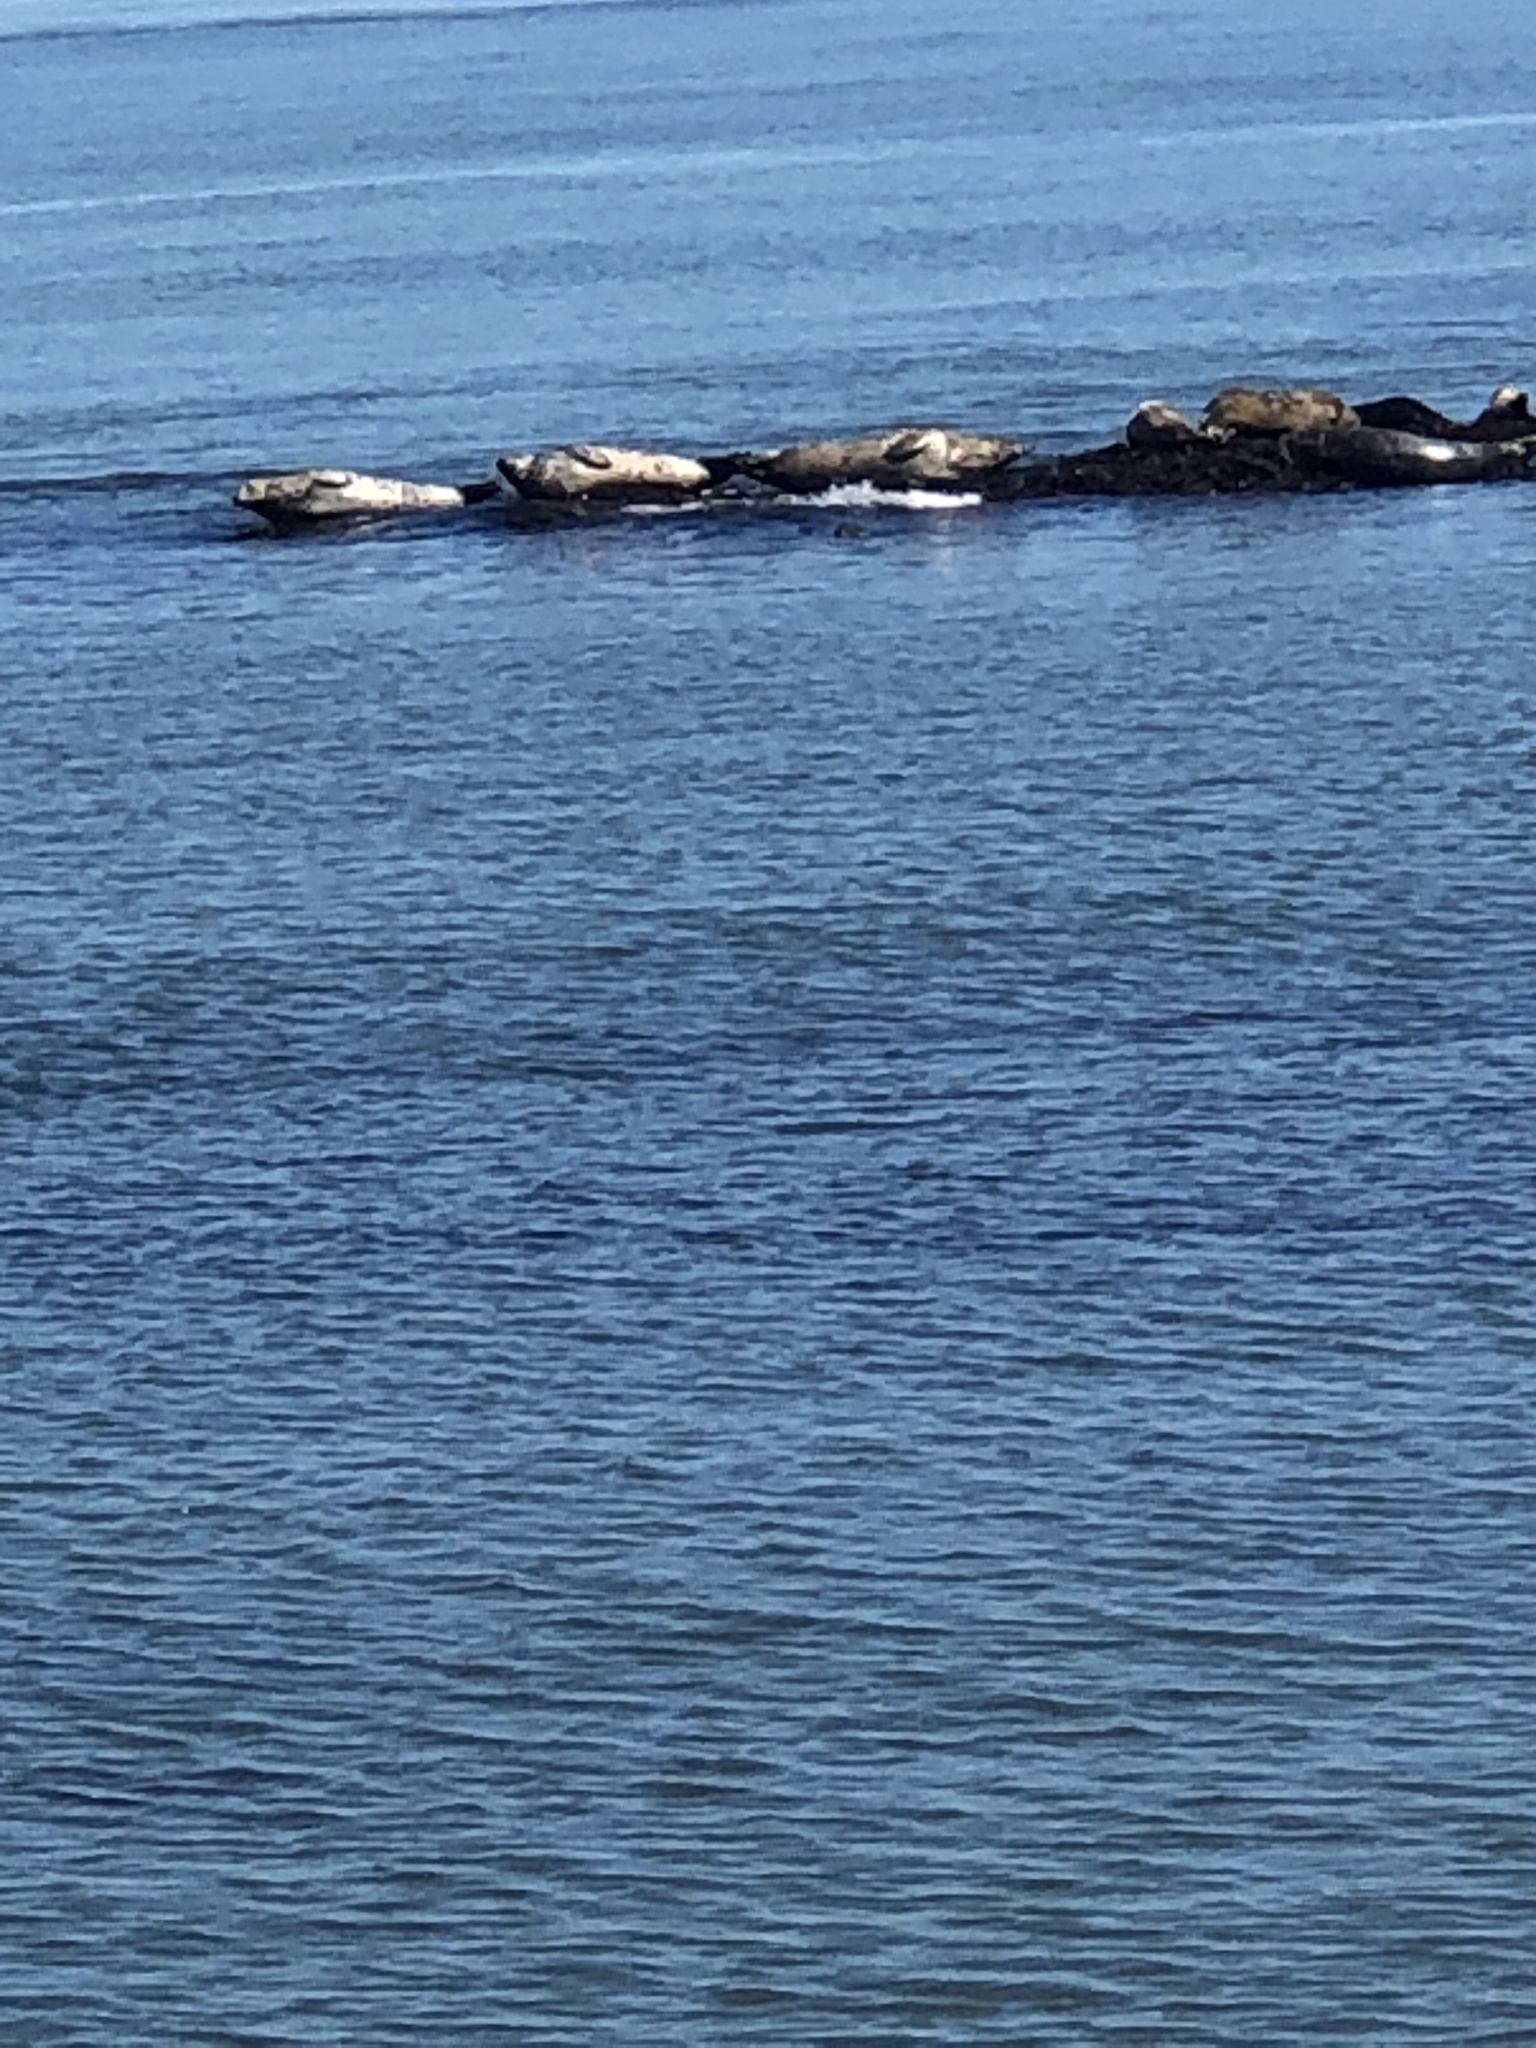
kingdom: Animalia
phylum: Chordata
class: Mammalia
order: Carnivora
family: Phocidae
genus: Phoca
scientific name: Phoca vitulina
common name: Harbor seal
